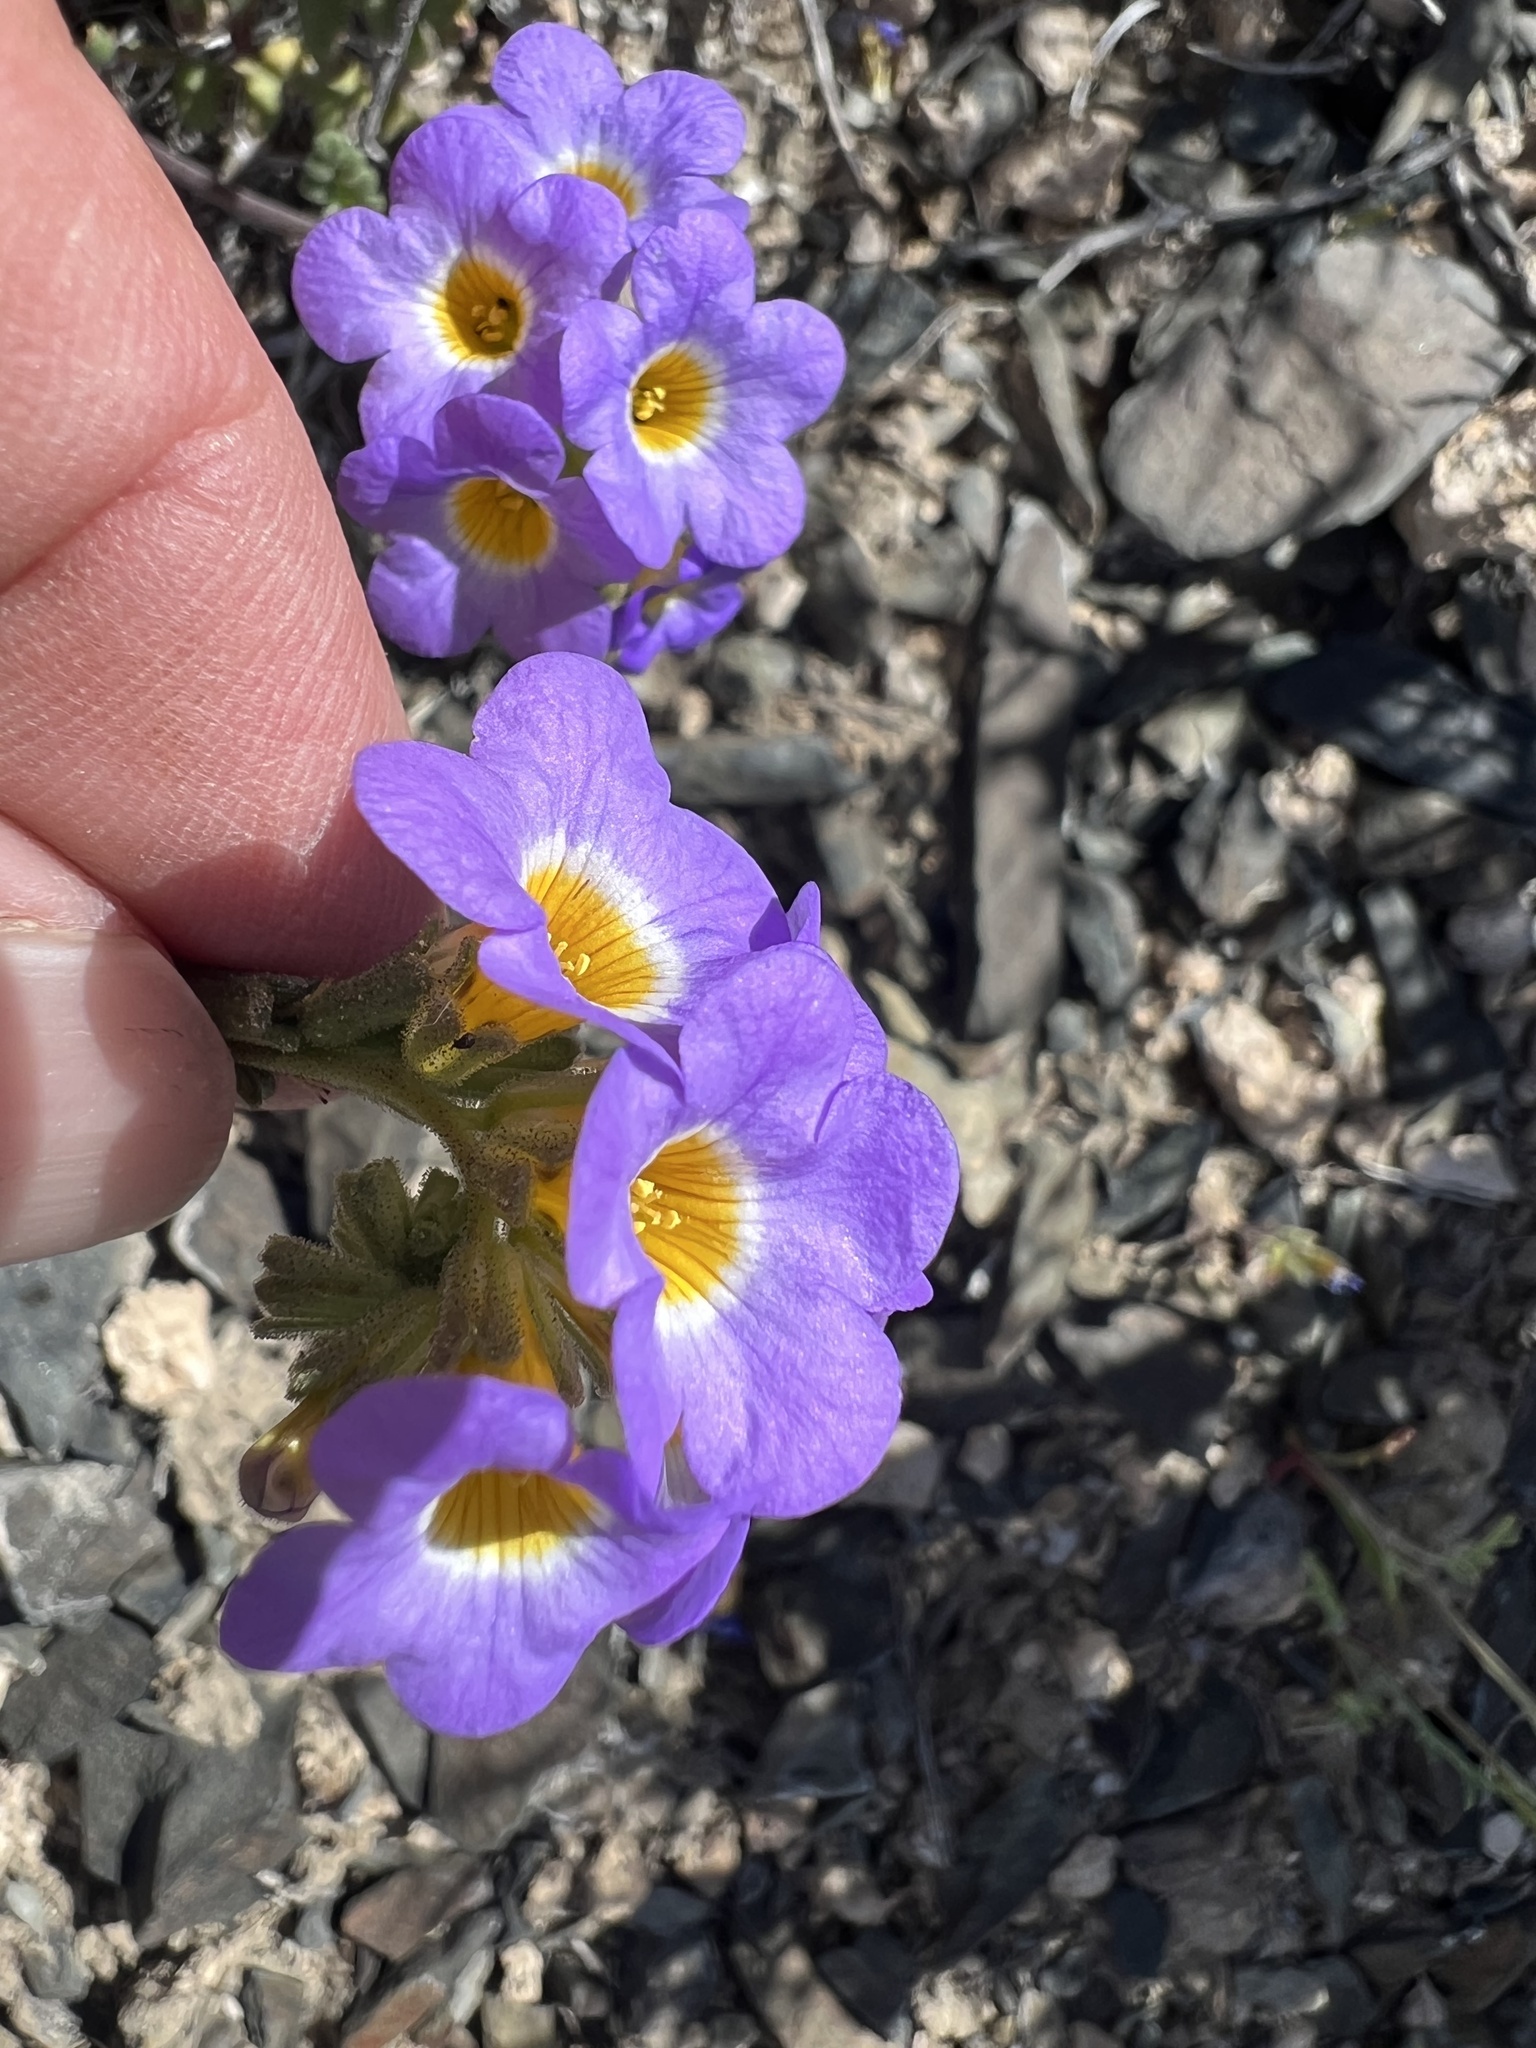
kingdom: Plantae
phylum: Tracheophyta
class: Magnoliopsida
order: Boraginales
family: Hydrophyllaceae
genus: Phacelia
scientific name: Phacelia fremontii
